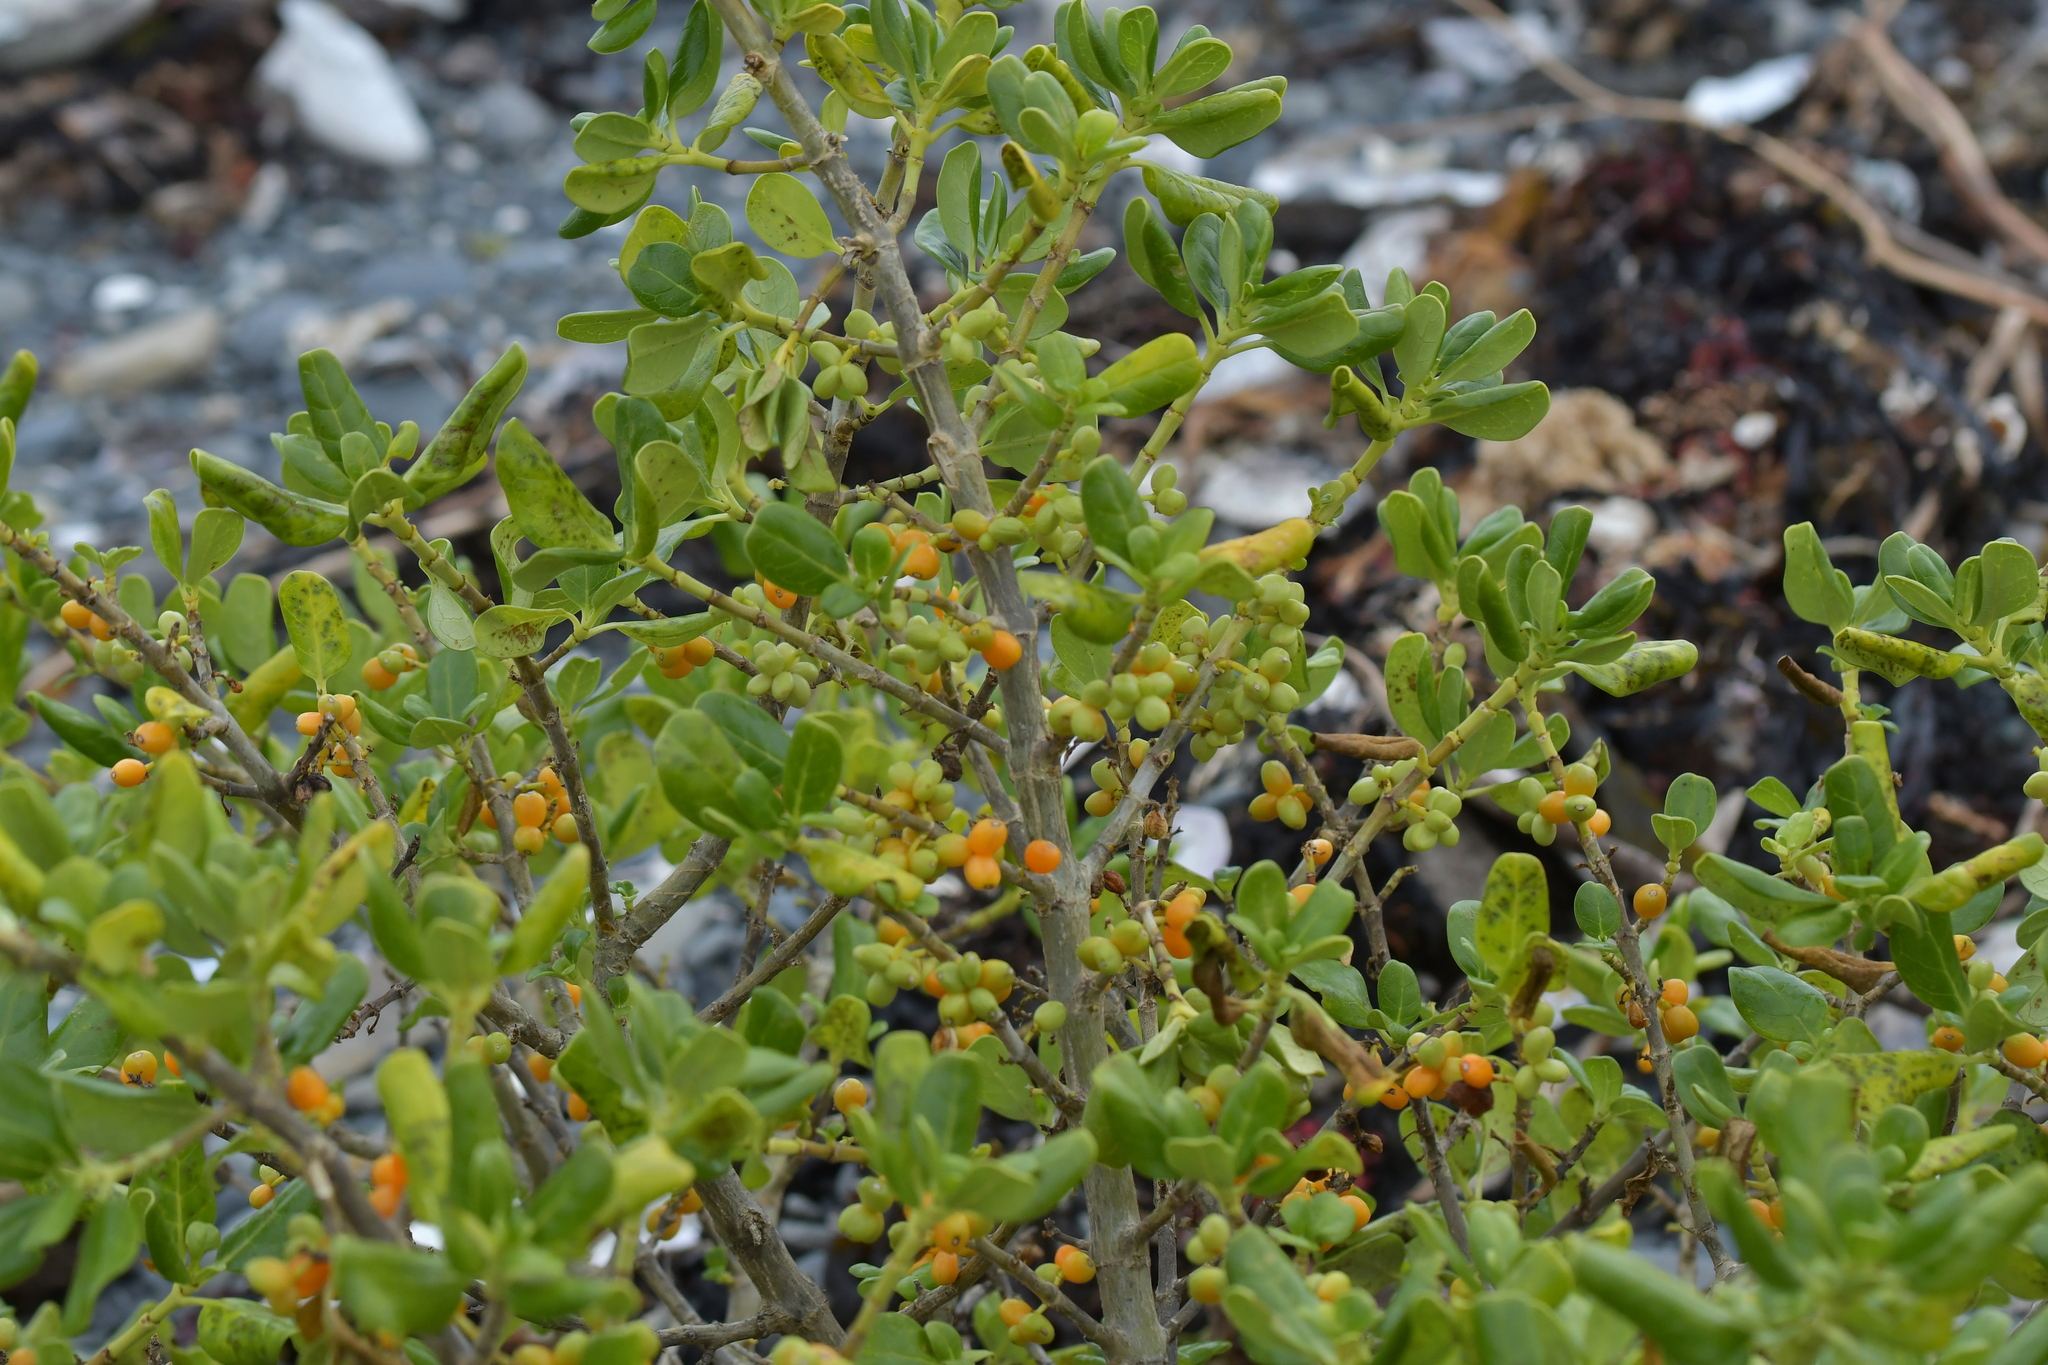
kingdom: Plantae
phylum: Tracheophyta
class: Magnoliopsida
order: Gentianales
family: Rubiaceae
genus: Coprosma
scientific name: Coprosma repens
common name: Tree bedstraw
